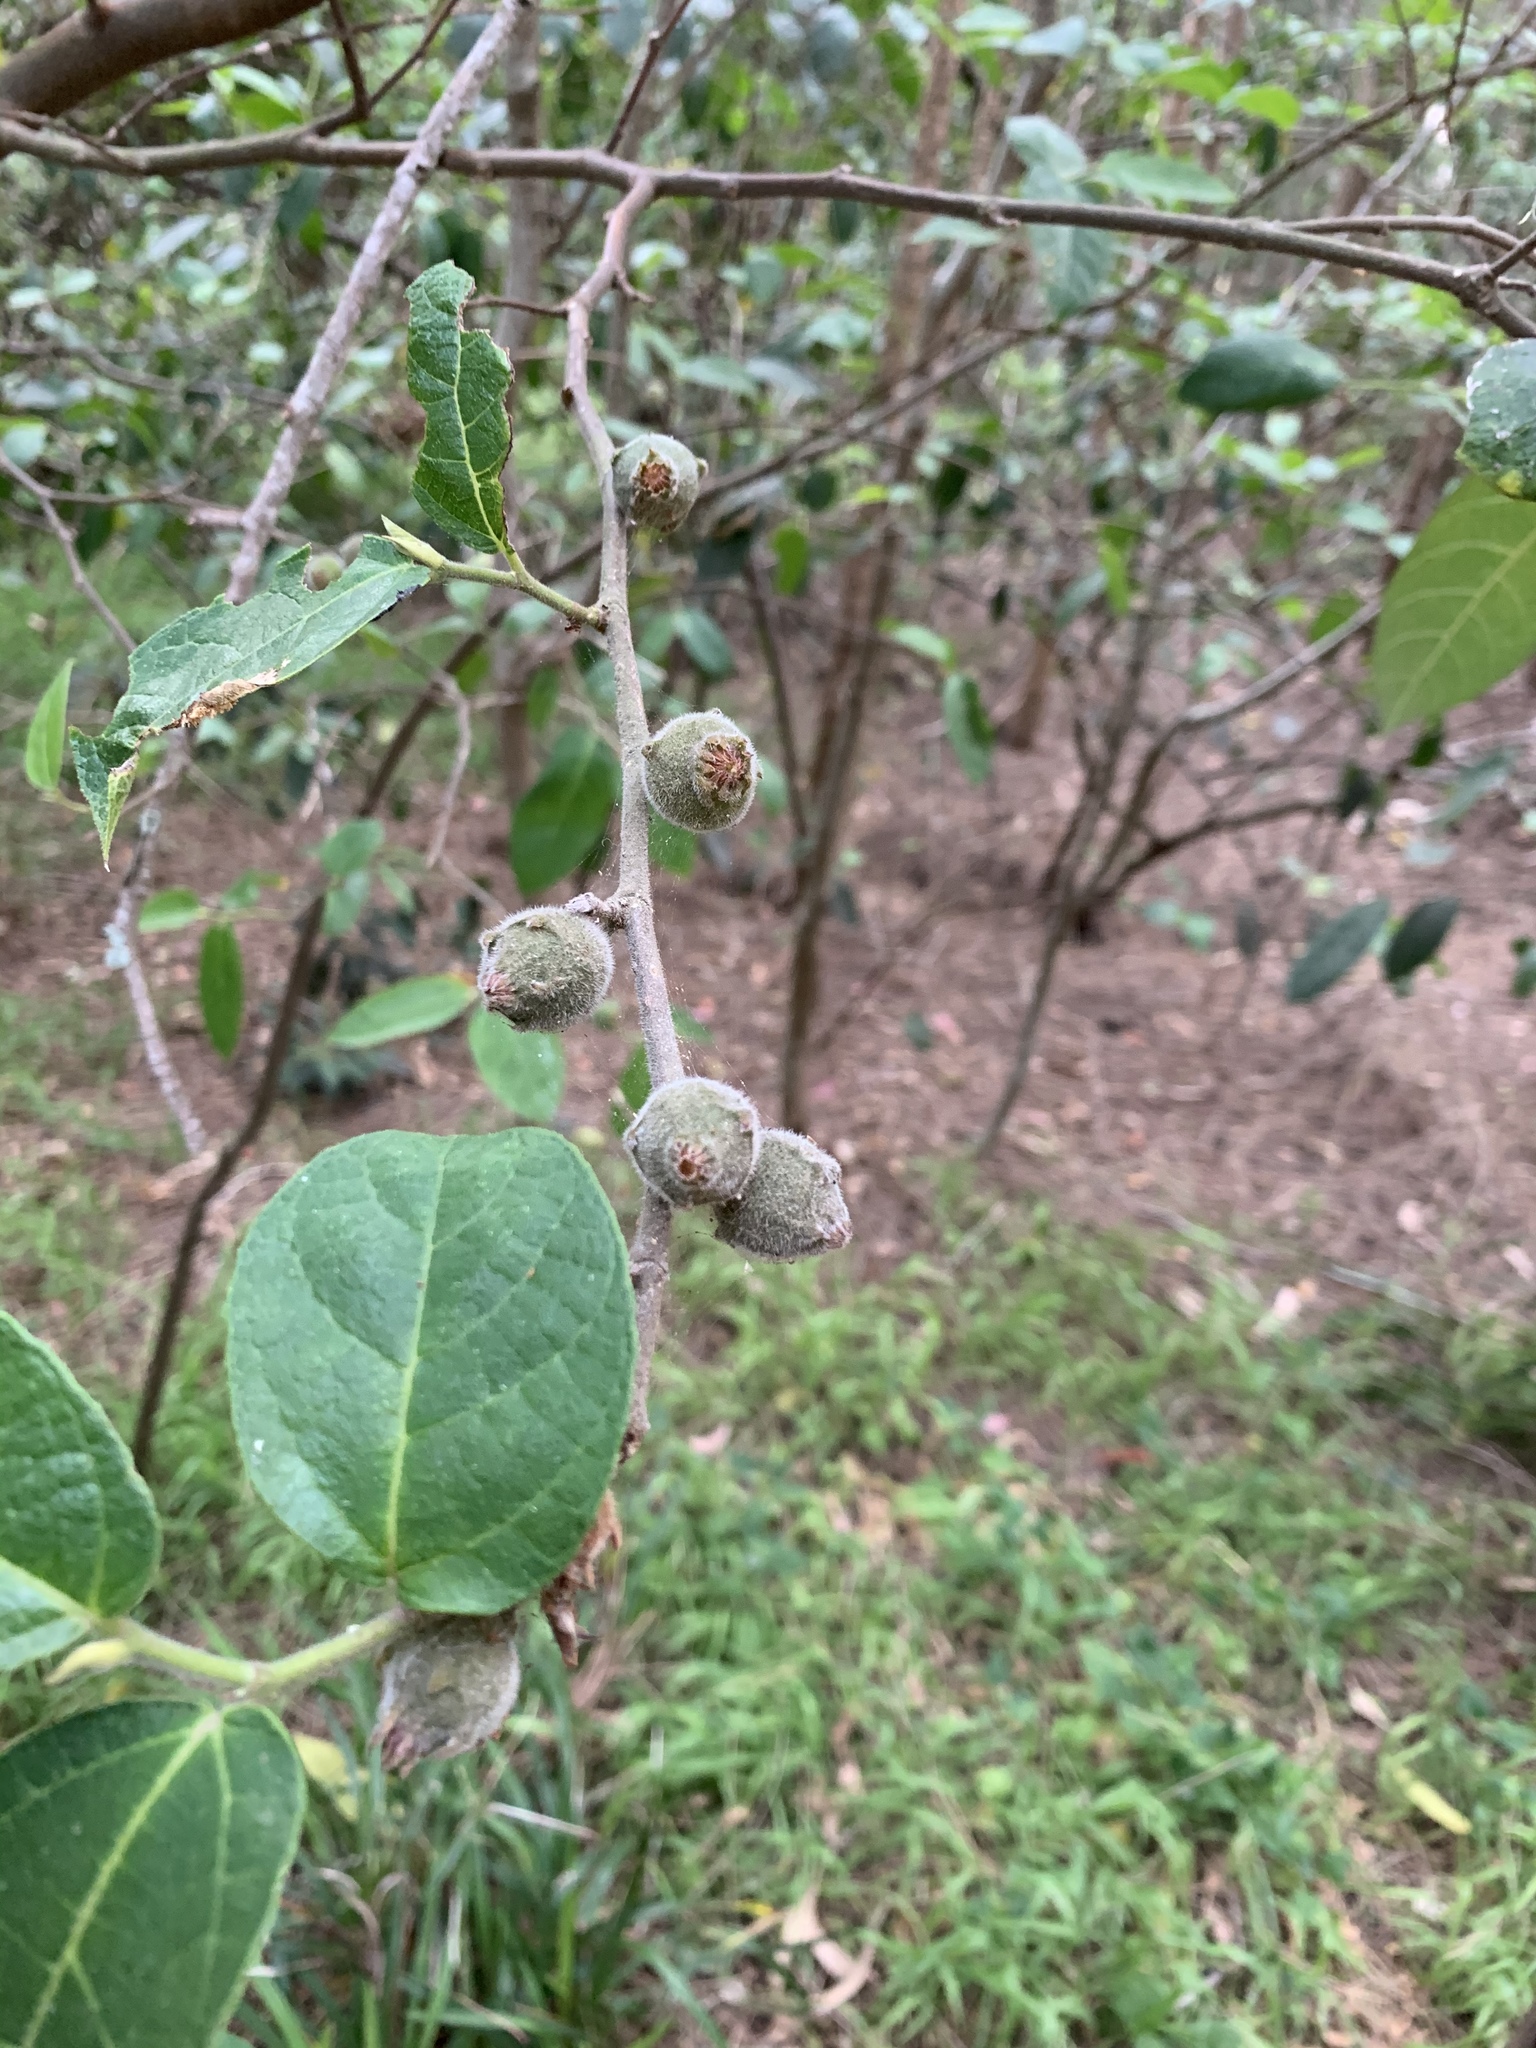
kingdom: Plantae
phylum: Tracheophyta
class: Magnoliopsida
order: Rosales
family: Moraceae
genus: Ficus
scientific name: Ficus coronata
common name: Creek sandpaper fig
